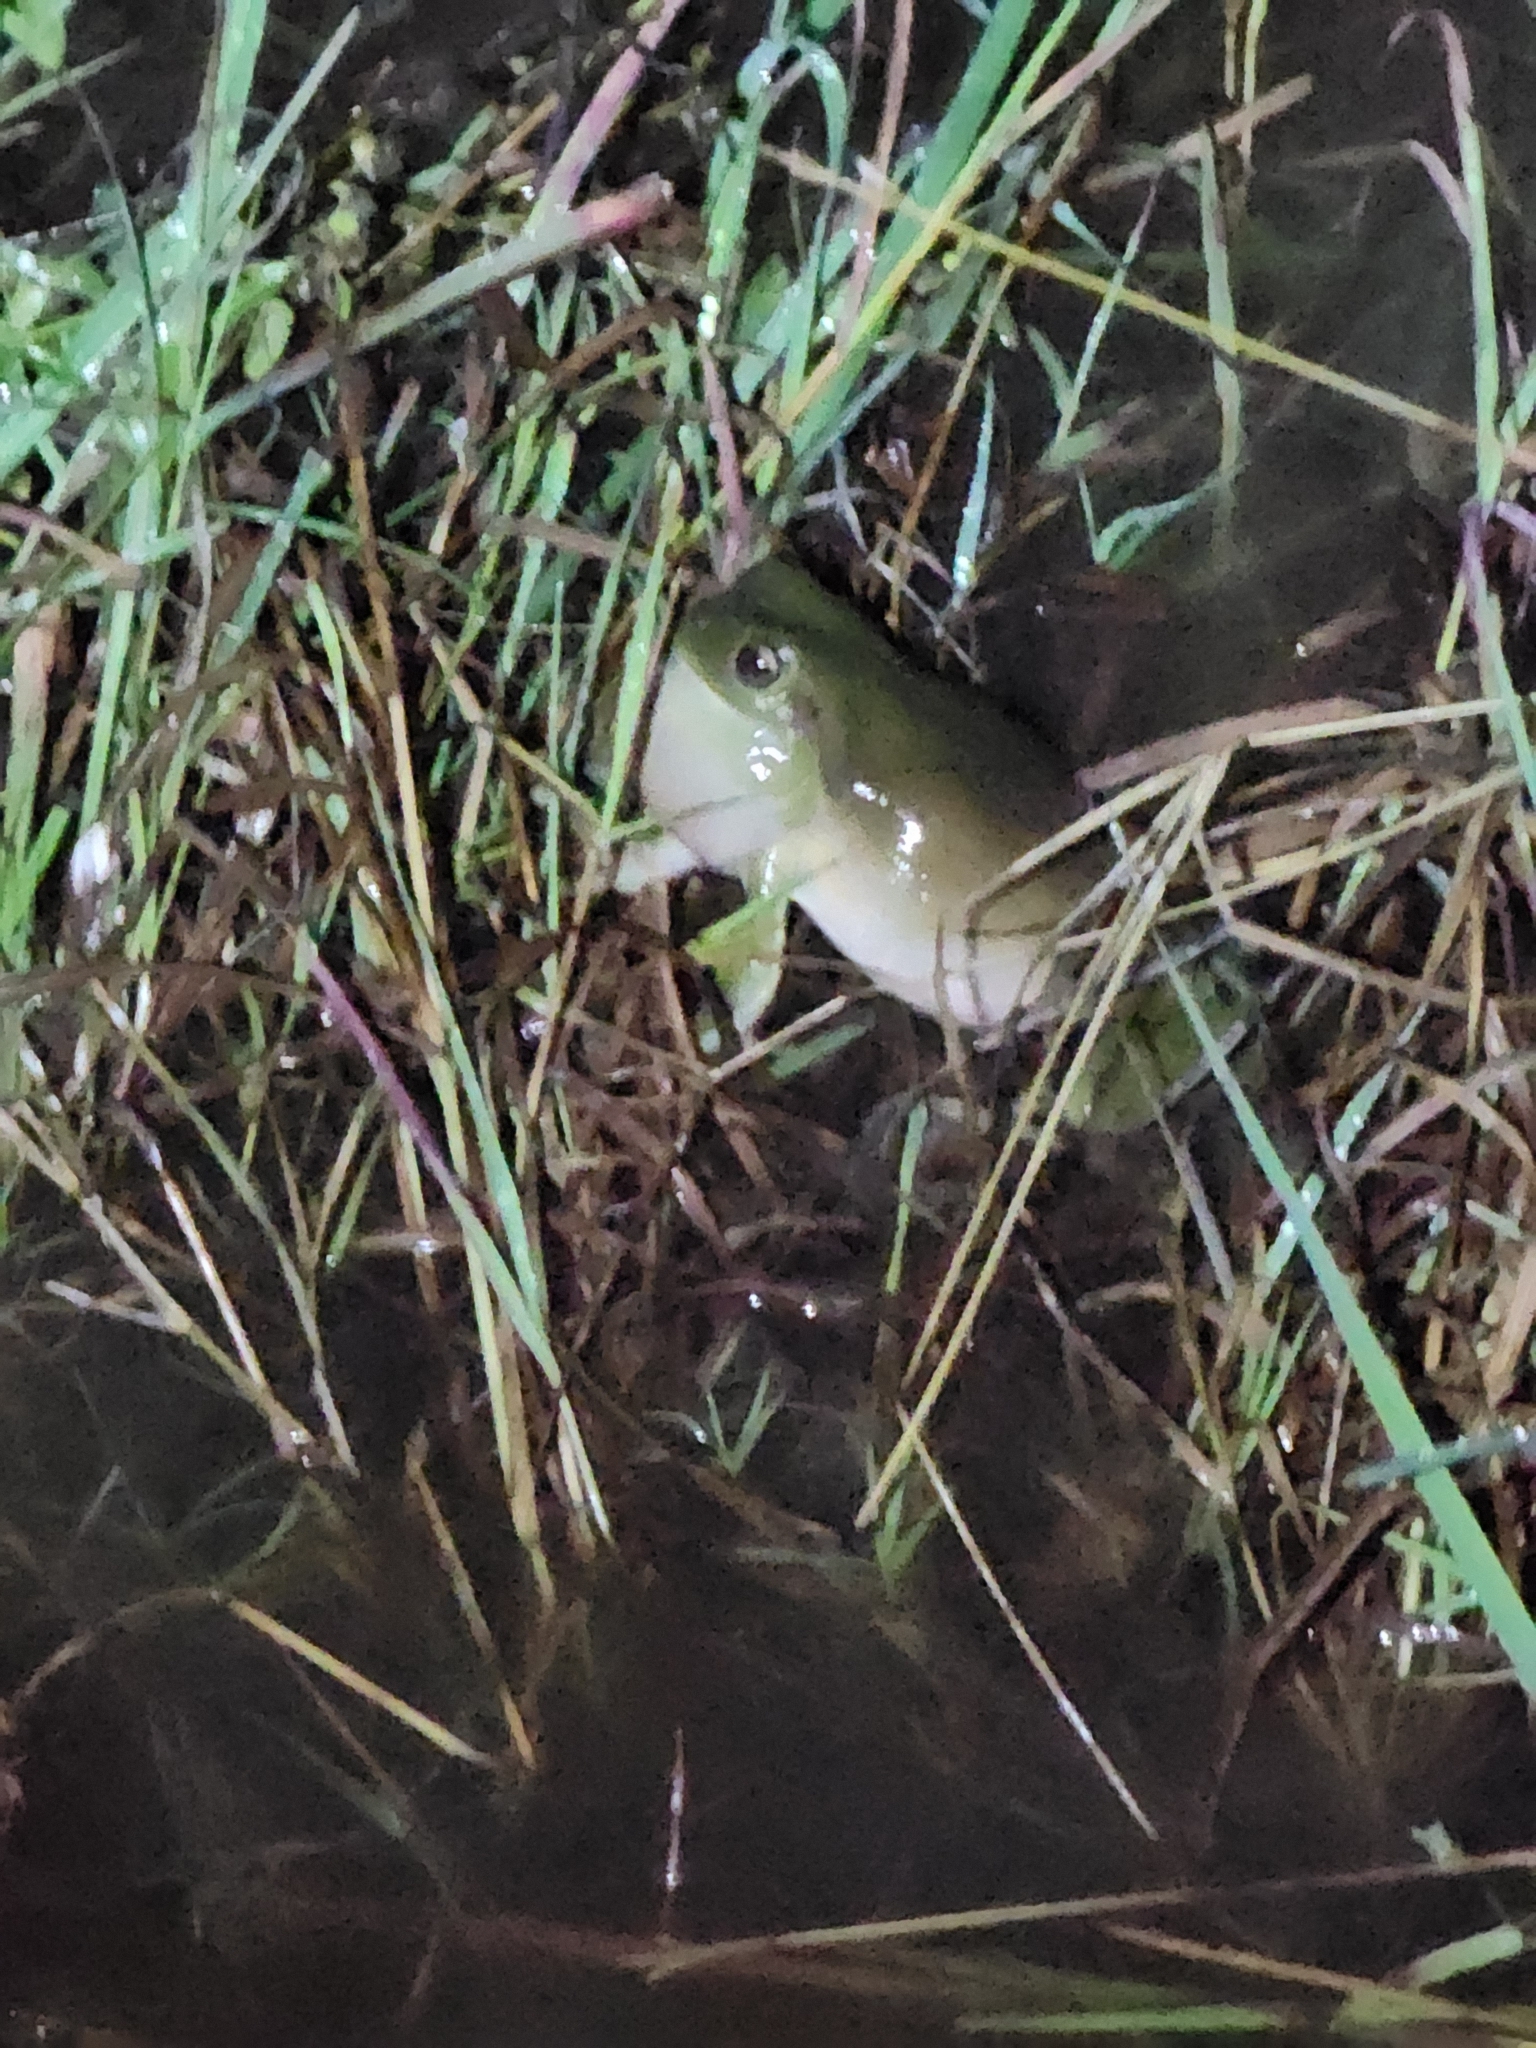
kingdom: Animalia
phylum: Chordata
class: Amphibia
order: Anura
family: Pelodryadidae
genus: Ranoidea
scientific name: Ranoidea caerulea
